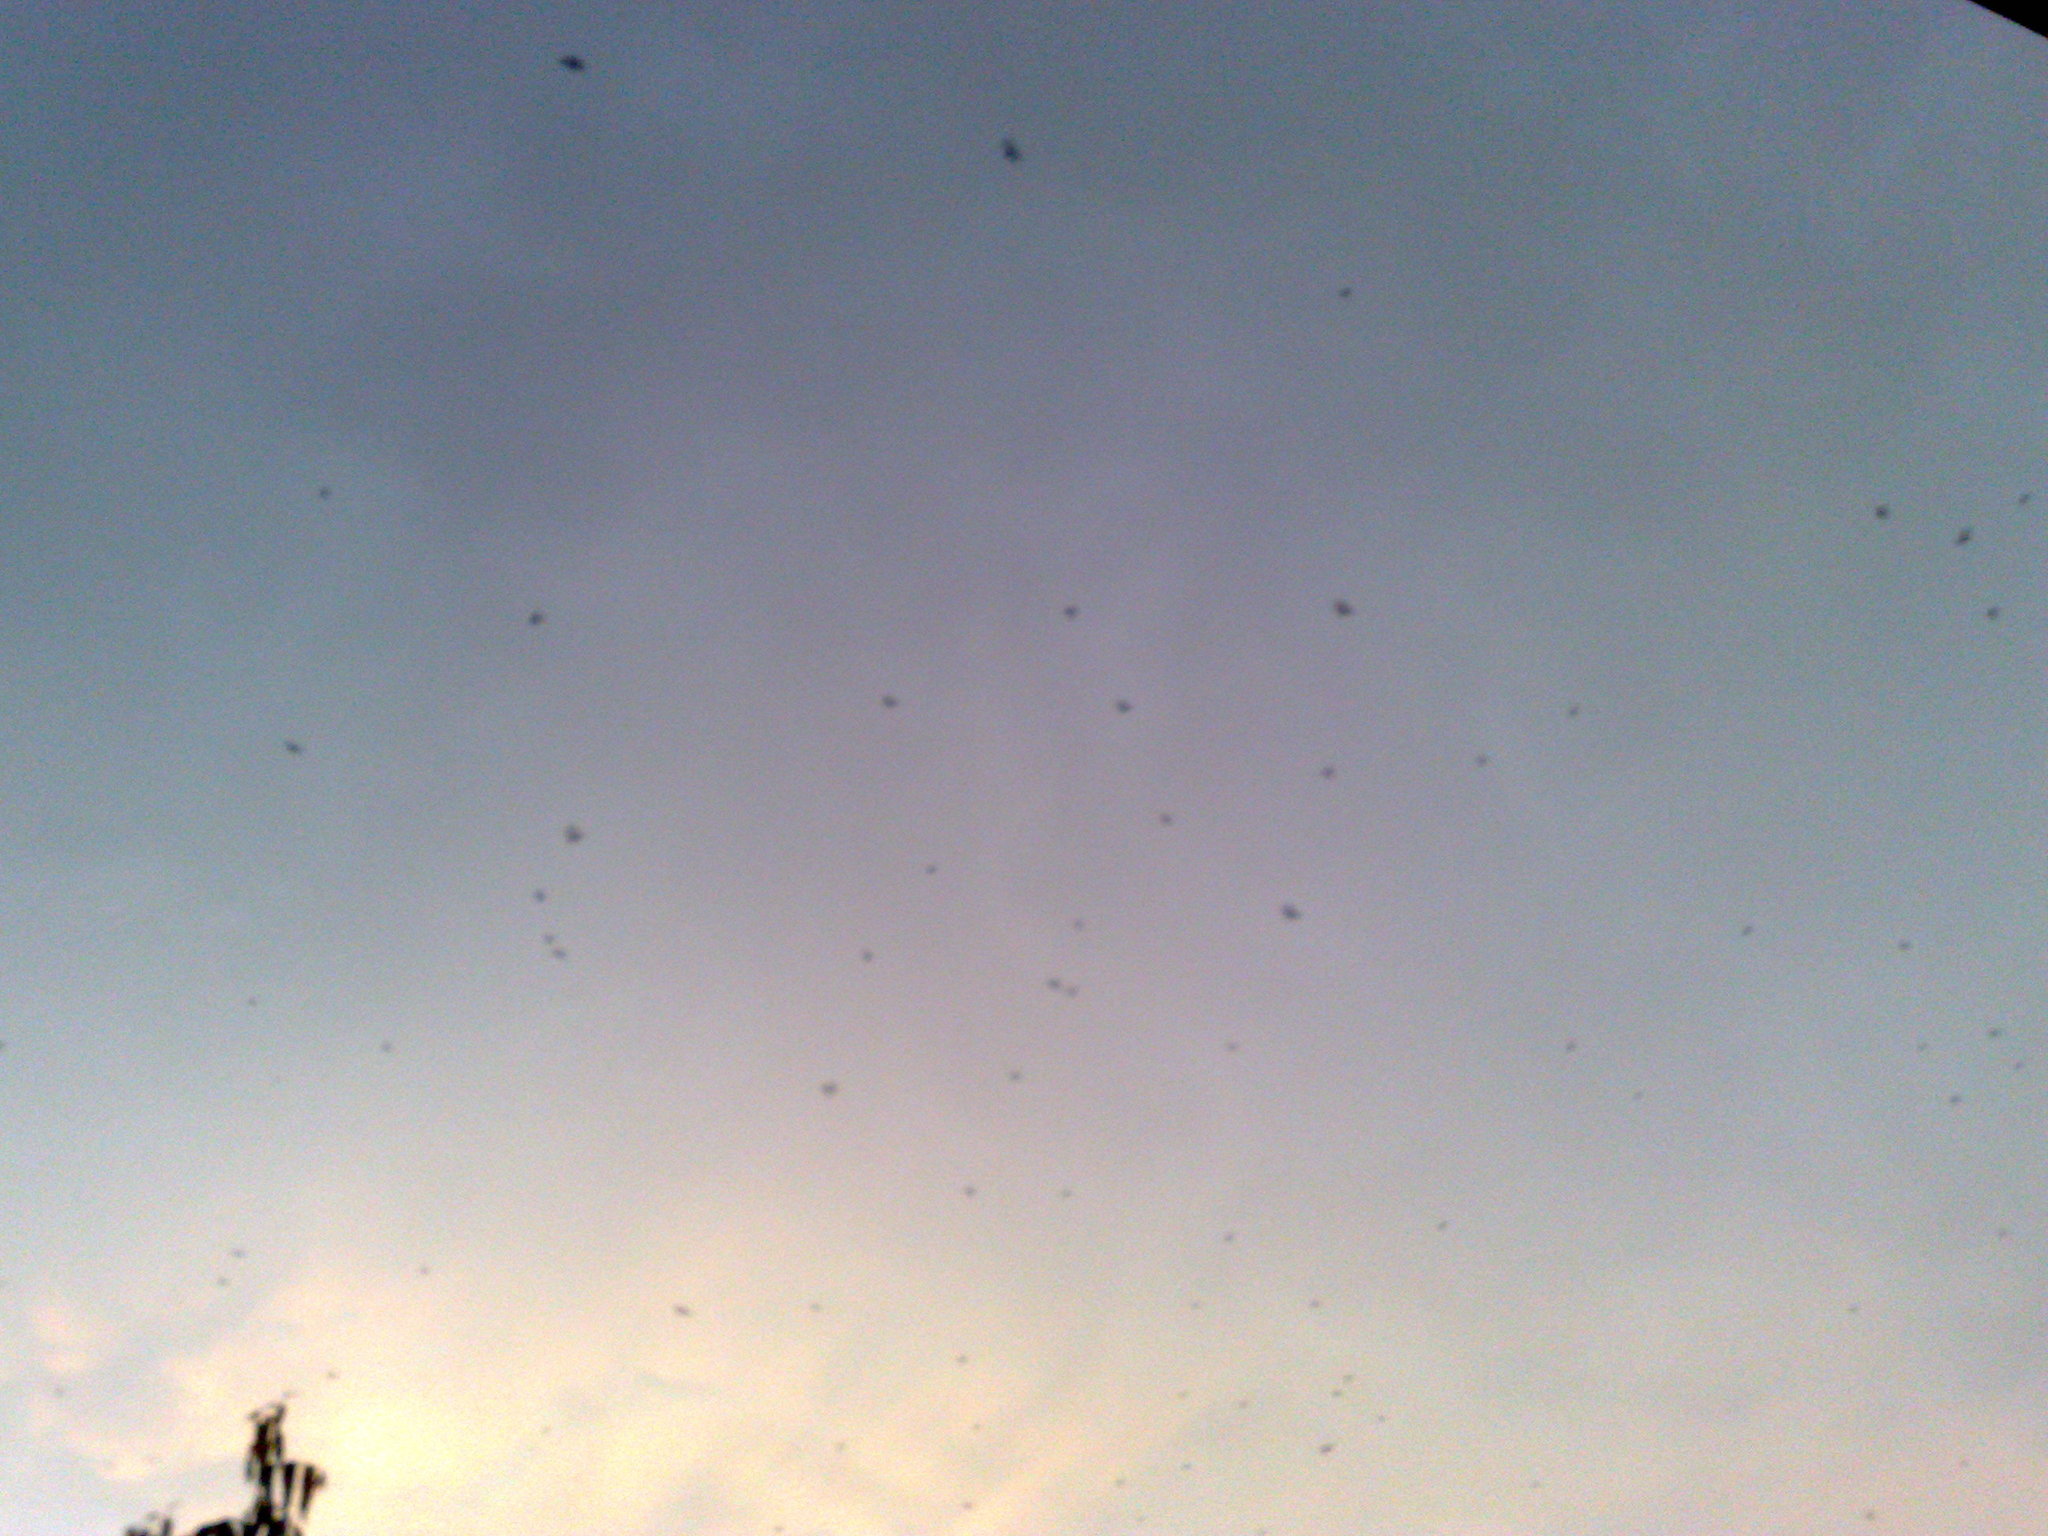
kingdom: Animalia
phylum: Chordata
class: Mammalia
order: Chiroptera
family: Pteropodidae
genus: Eidolon
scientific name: Eidolon helvum
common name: Straw-colored fruit bat
